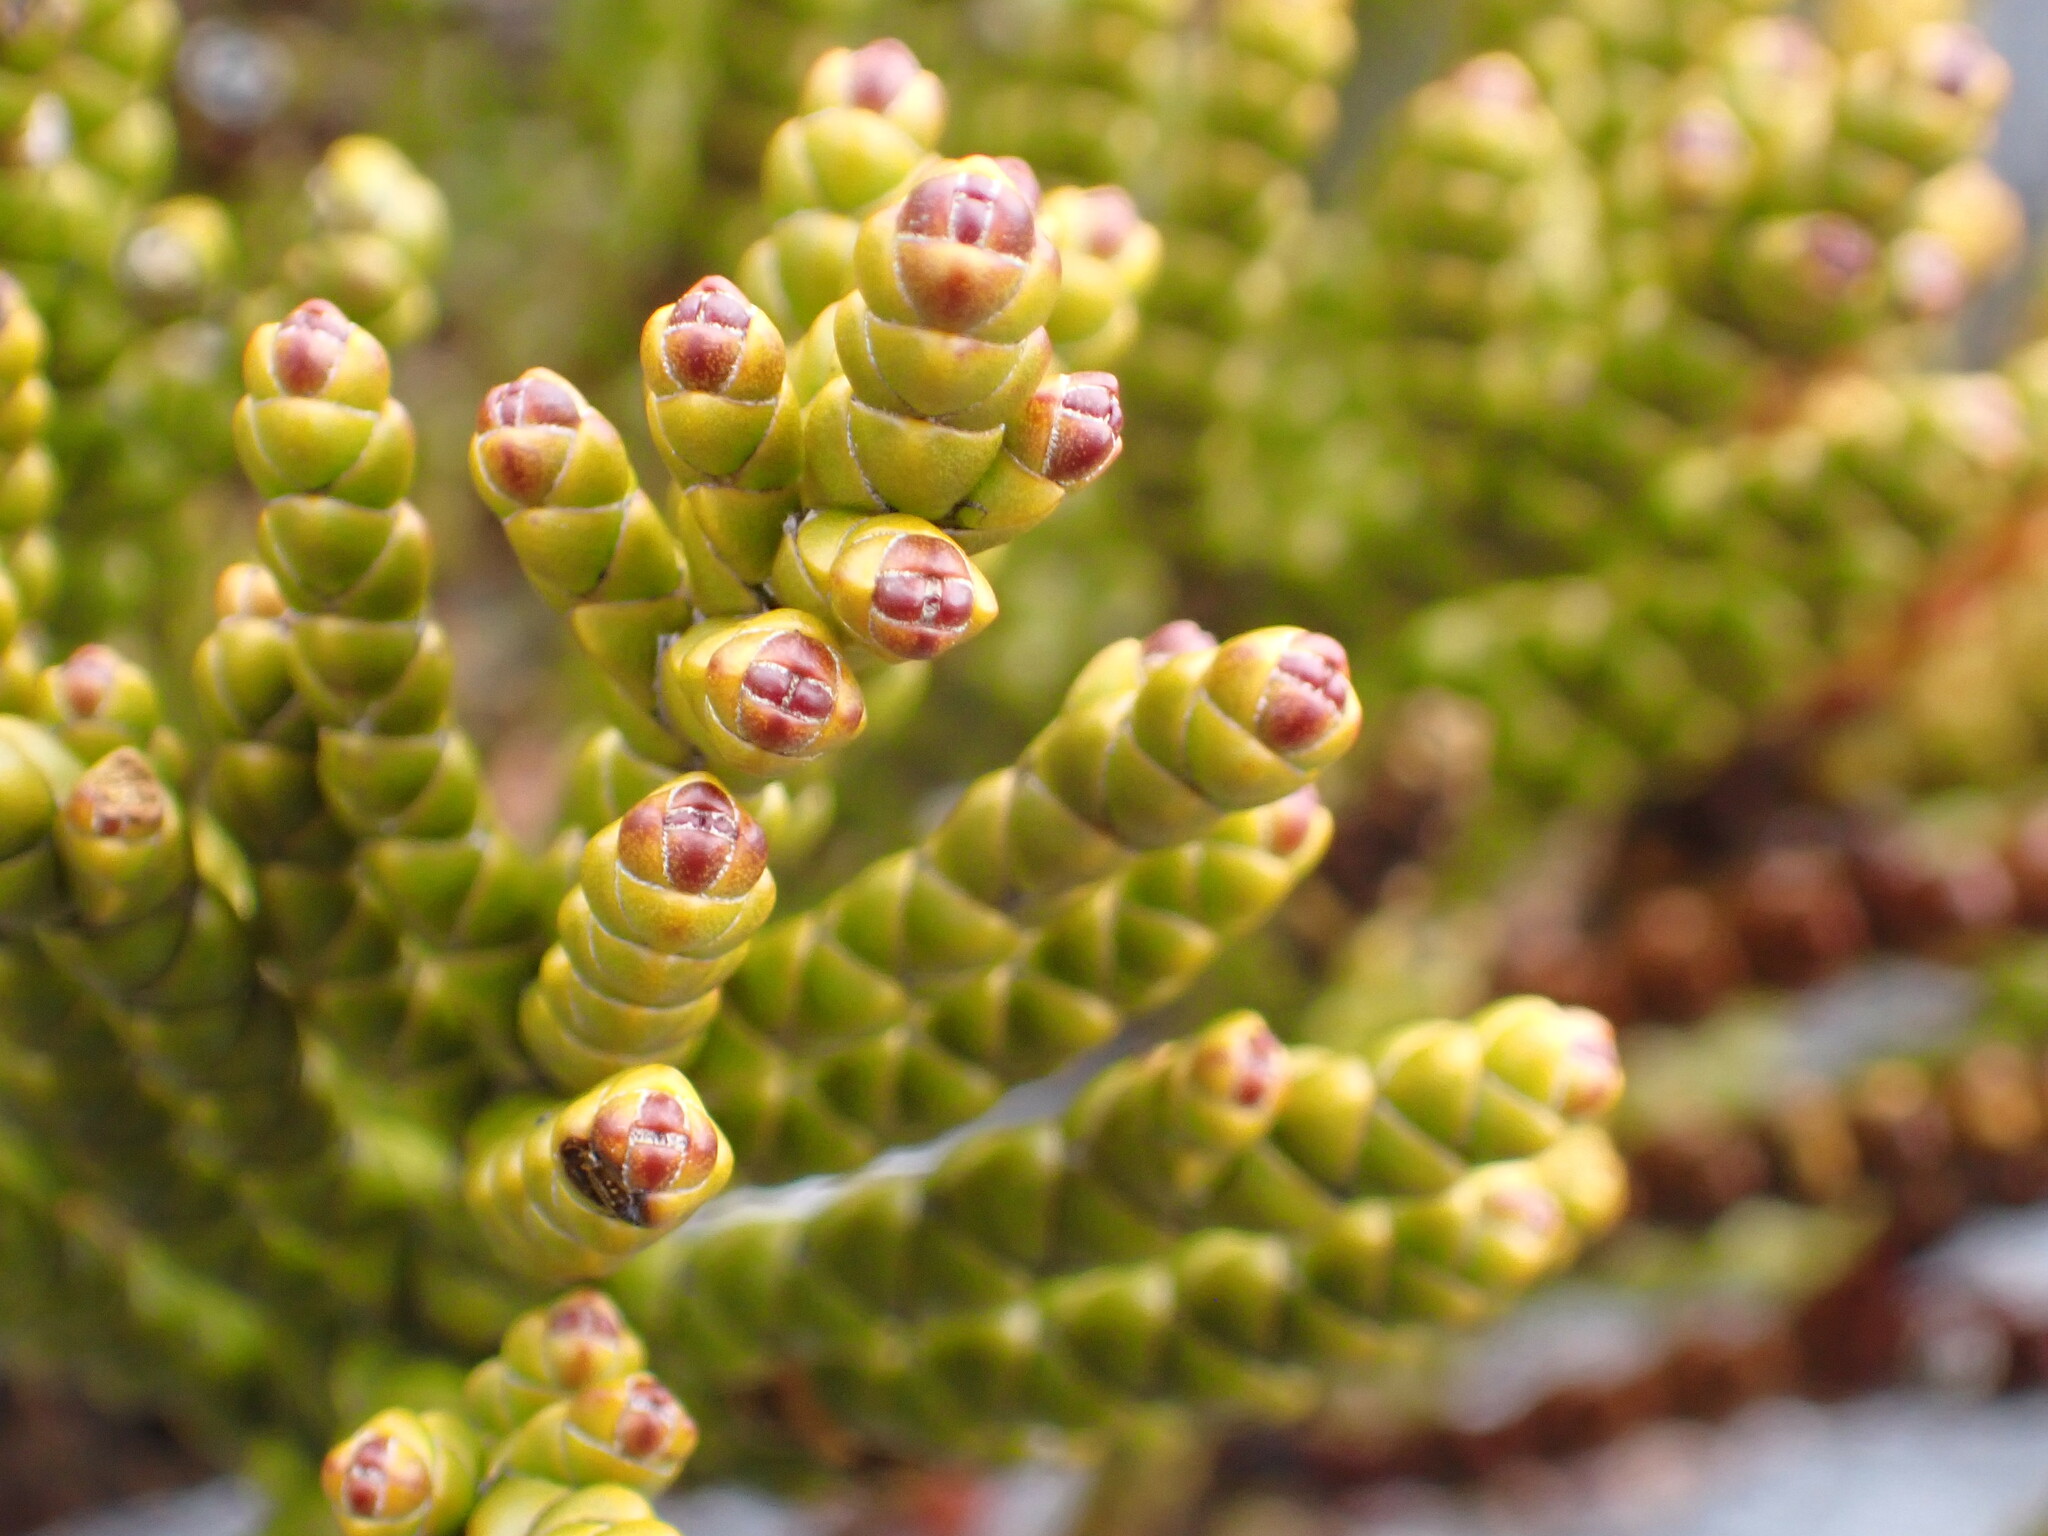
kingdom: Plantae
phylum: Tracheophyta
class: Magnoliopsida
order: Lamiales
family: Plantaginaceae
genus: Veronica
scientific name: Veronica hectorii
